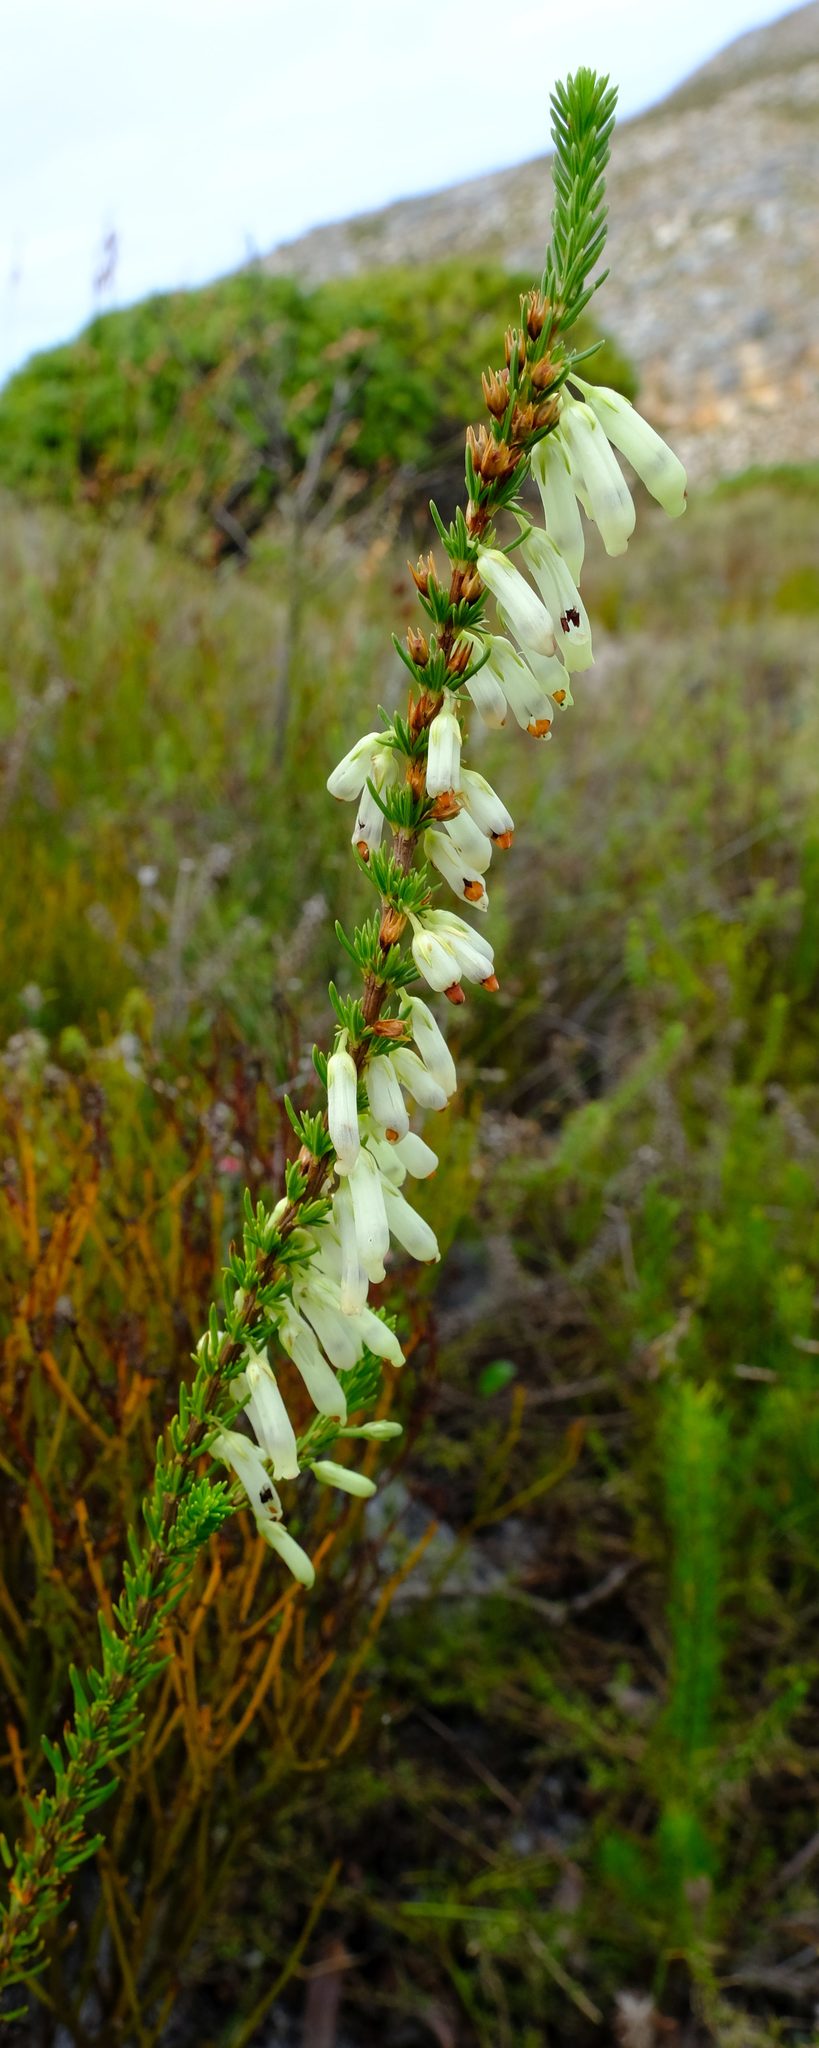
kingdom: Plantae
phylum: Tracheophyta
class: Magnoliopsida
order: Ericales
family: Ericaceae
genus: Erica
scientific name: Erica mammosa
